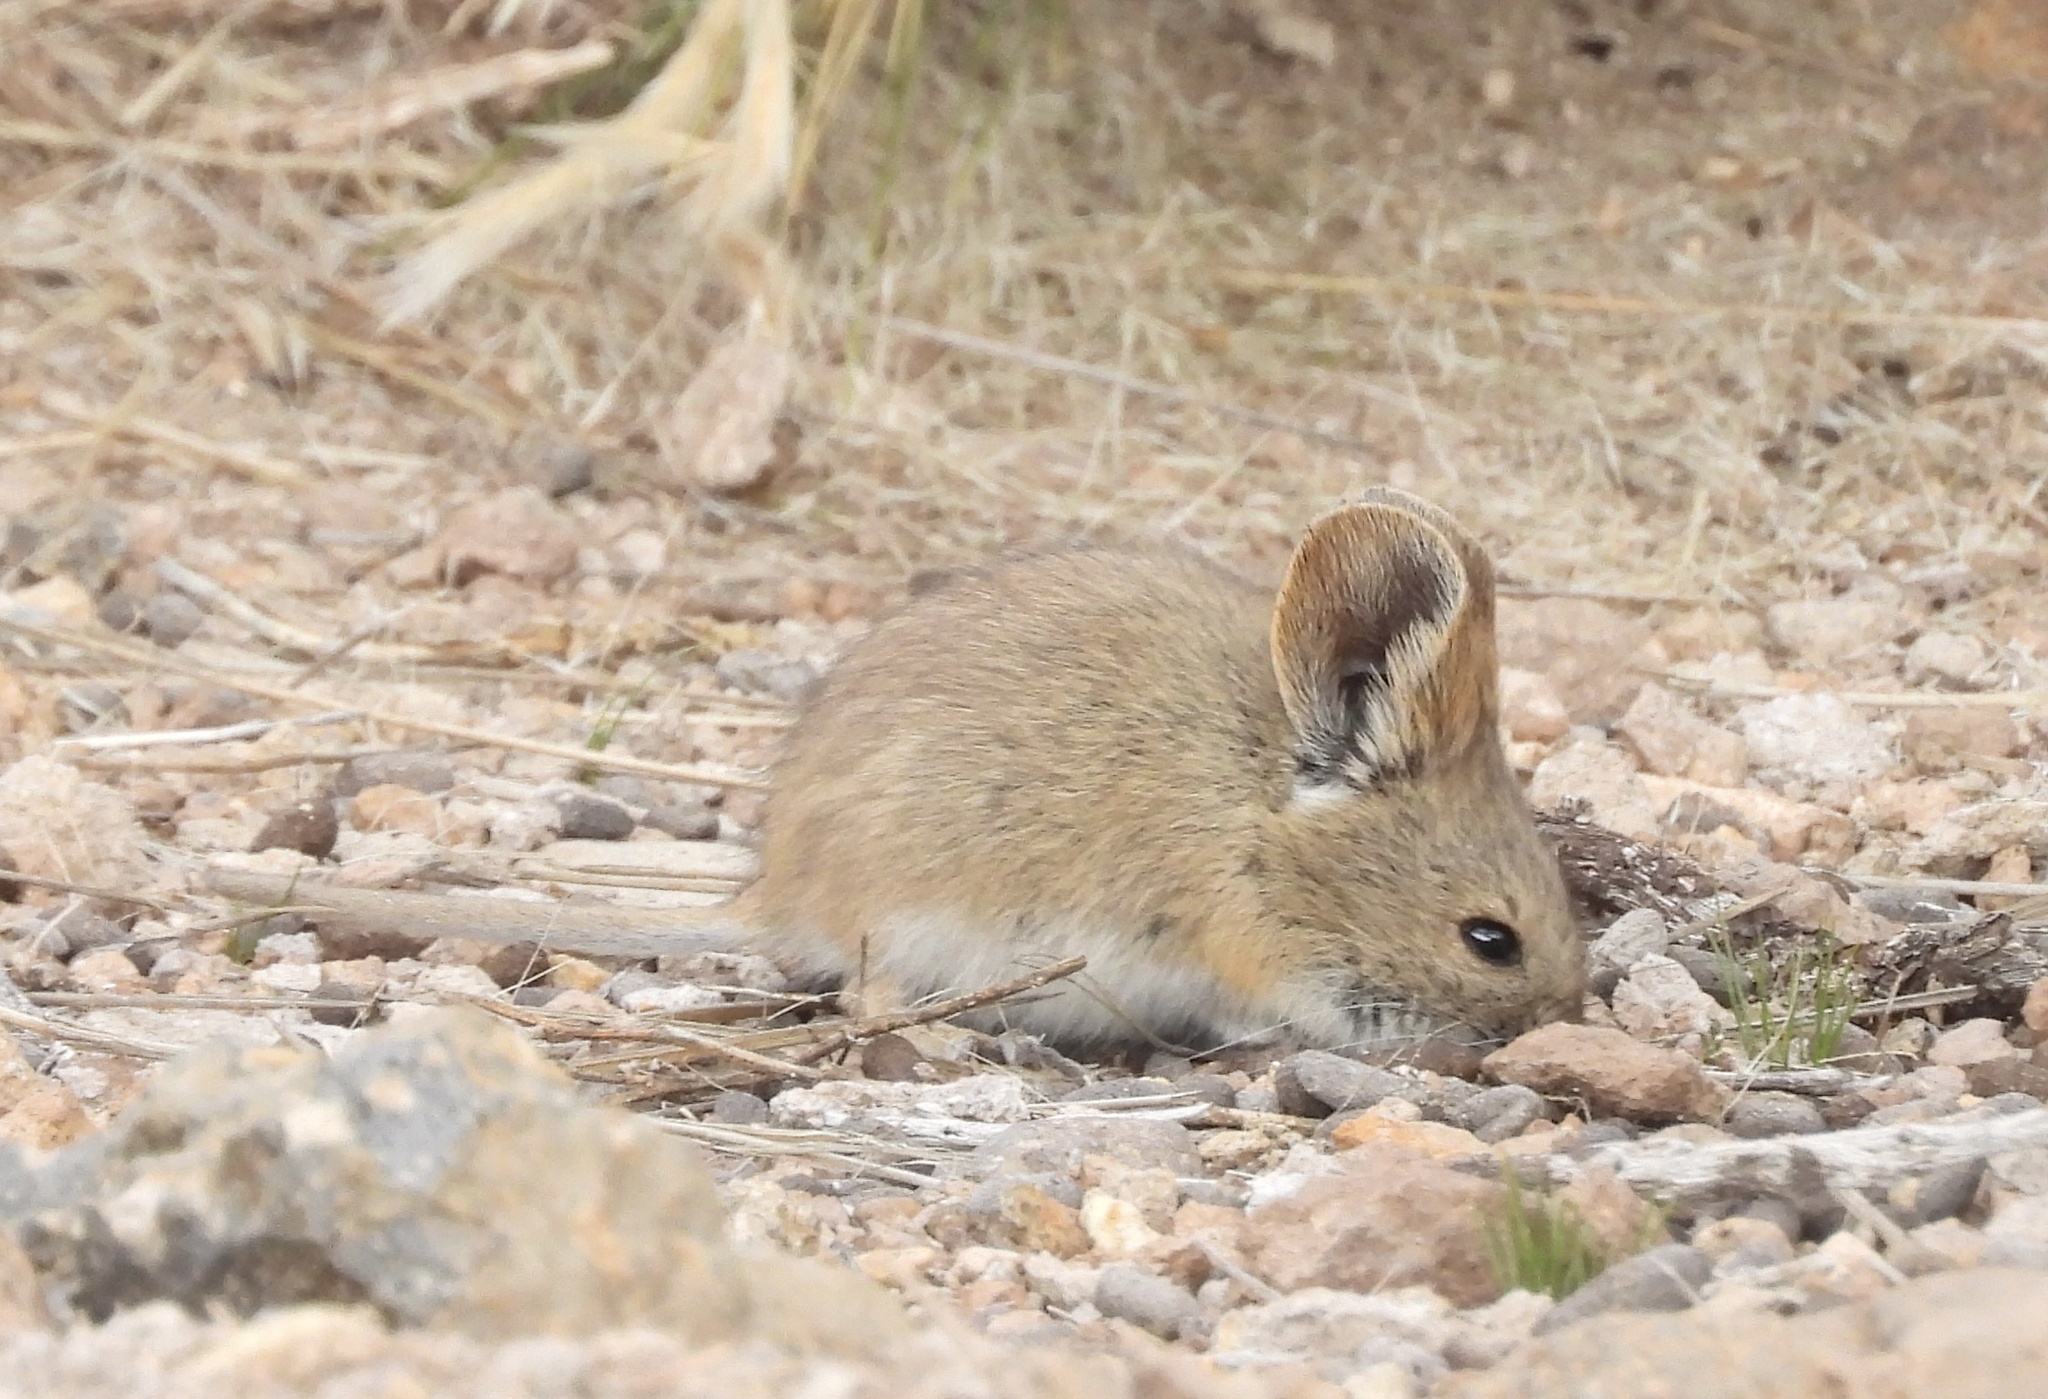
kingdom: Animalia
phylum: Chordata
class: Mammalia
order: Rodentia
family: Cricetidae
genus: Auliscomys
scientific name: Auliscomys boliviensis
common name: Bolivian pericote
